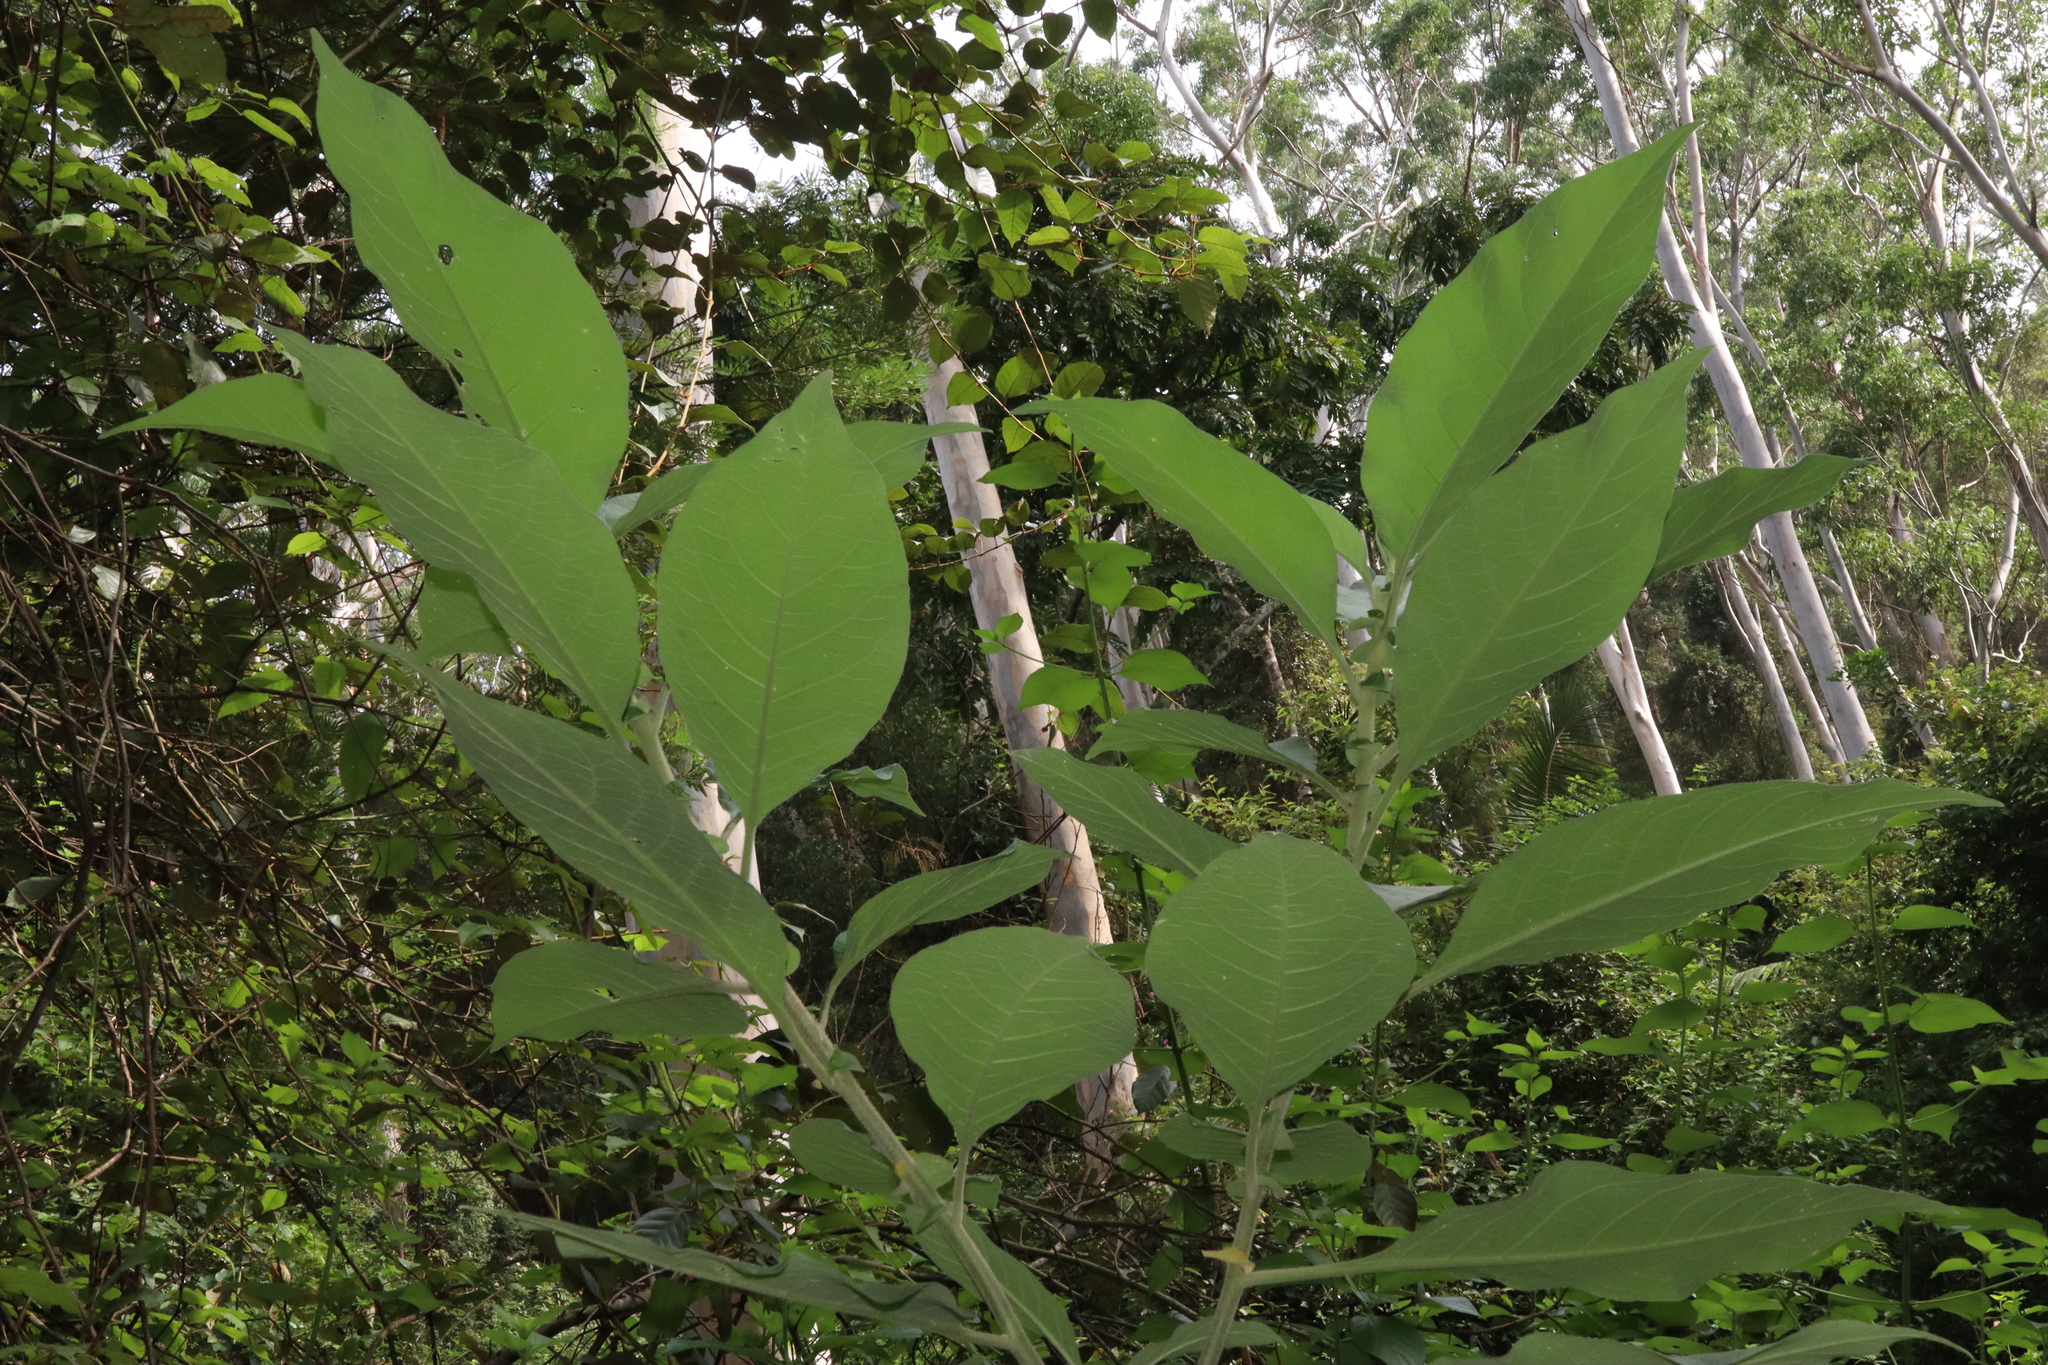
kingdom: Plantae
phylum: Tracheophyta
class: Magnoliopsida
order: Solanales
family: Solanaceae
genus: Solanum
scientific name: Solanum mauritianum
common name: Earleaf nightshade
